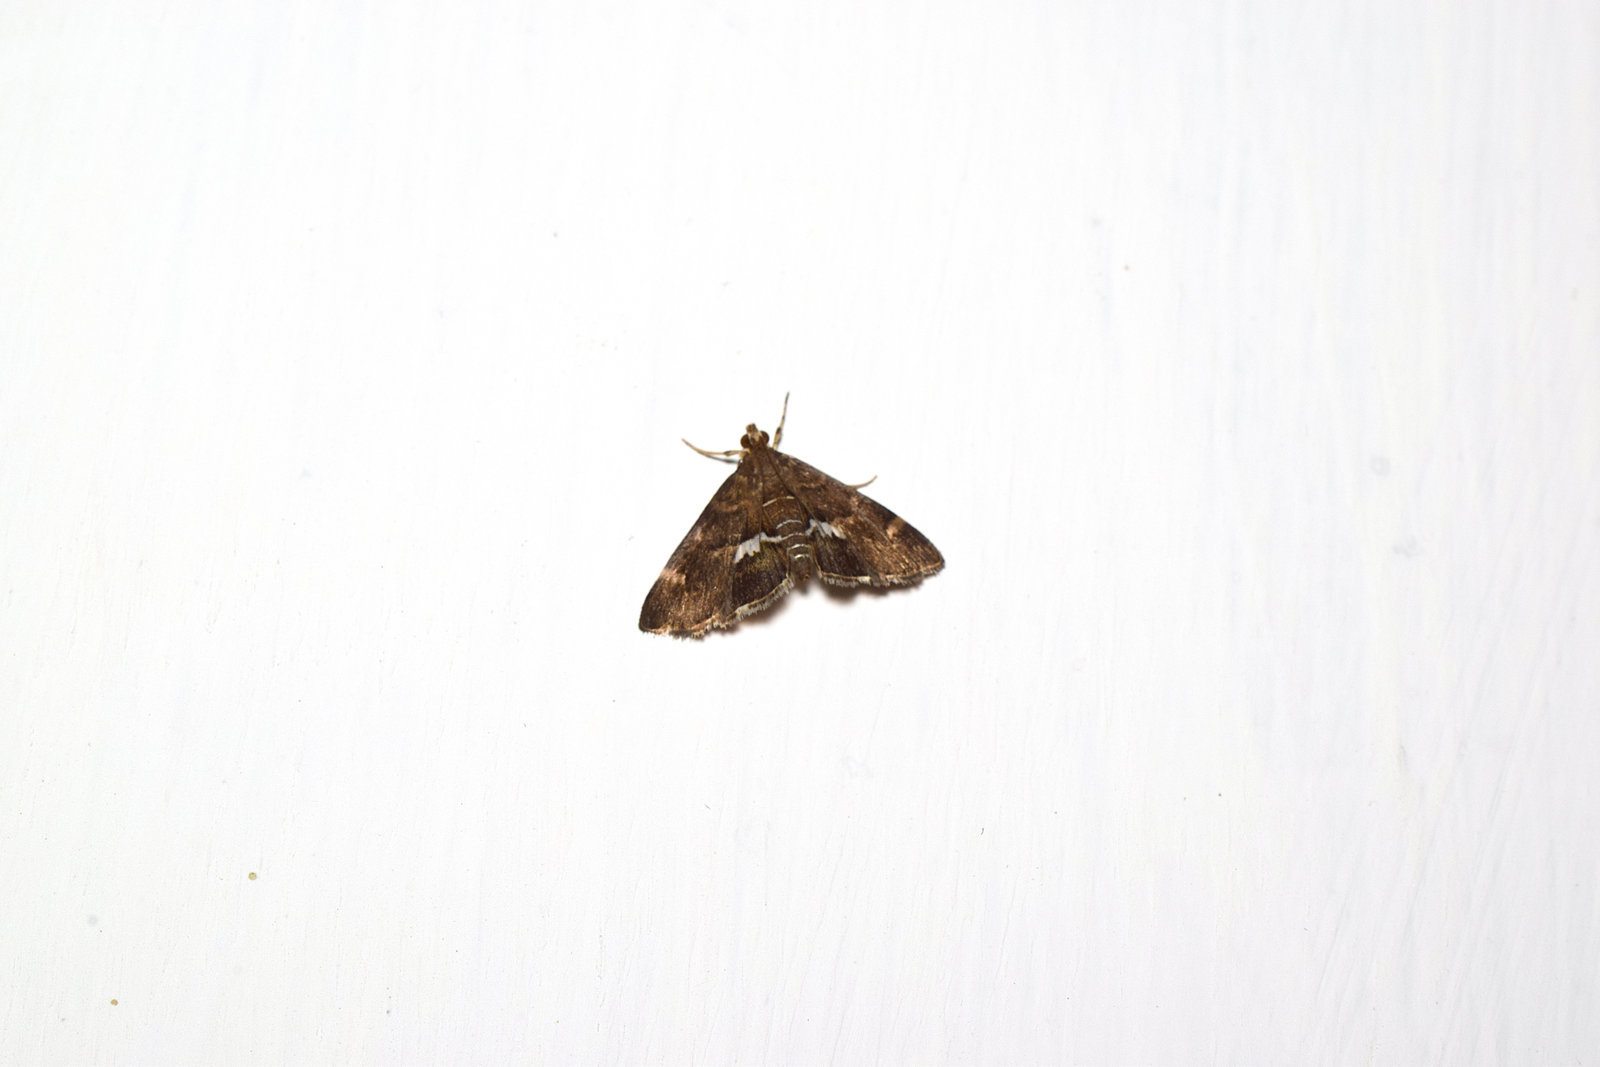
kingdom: Animalia
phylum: Arthropoda
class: Insecta
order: Lepidoptera
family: Crambidae
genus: Hymenia
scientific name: Hymenia perspectalis
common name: Spotted beet webworm
